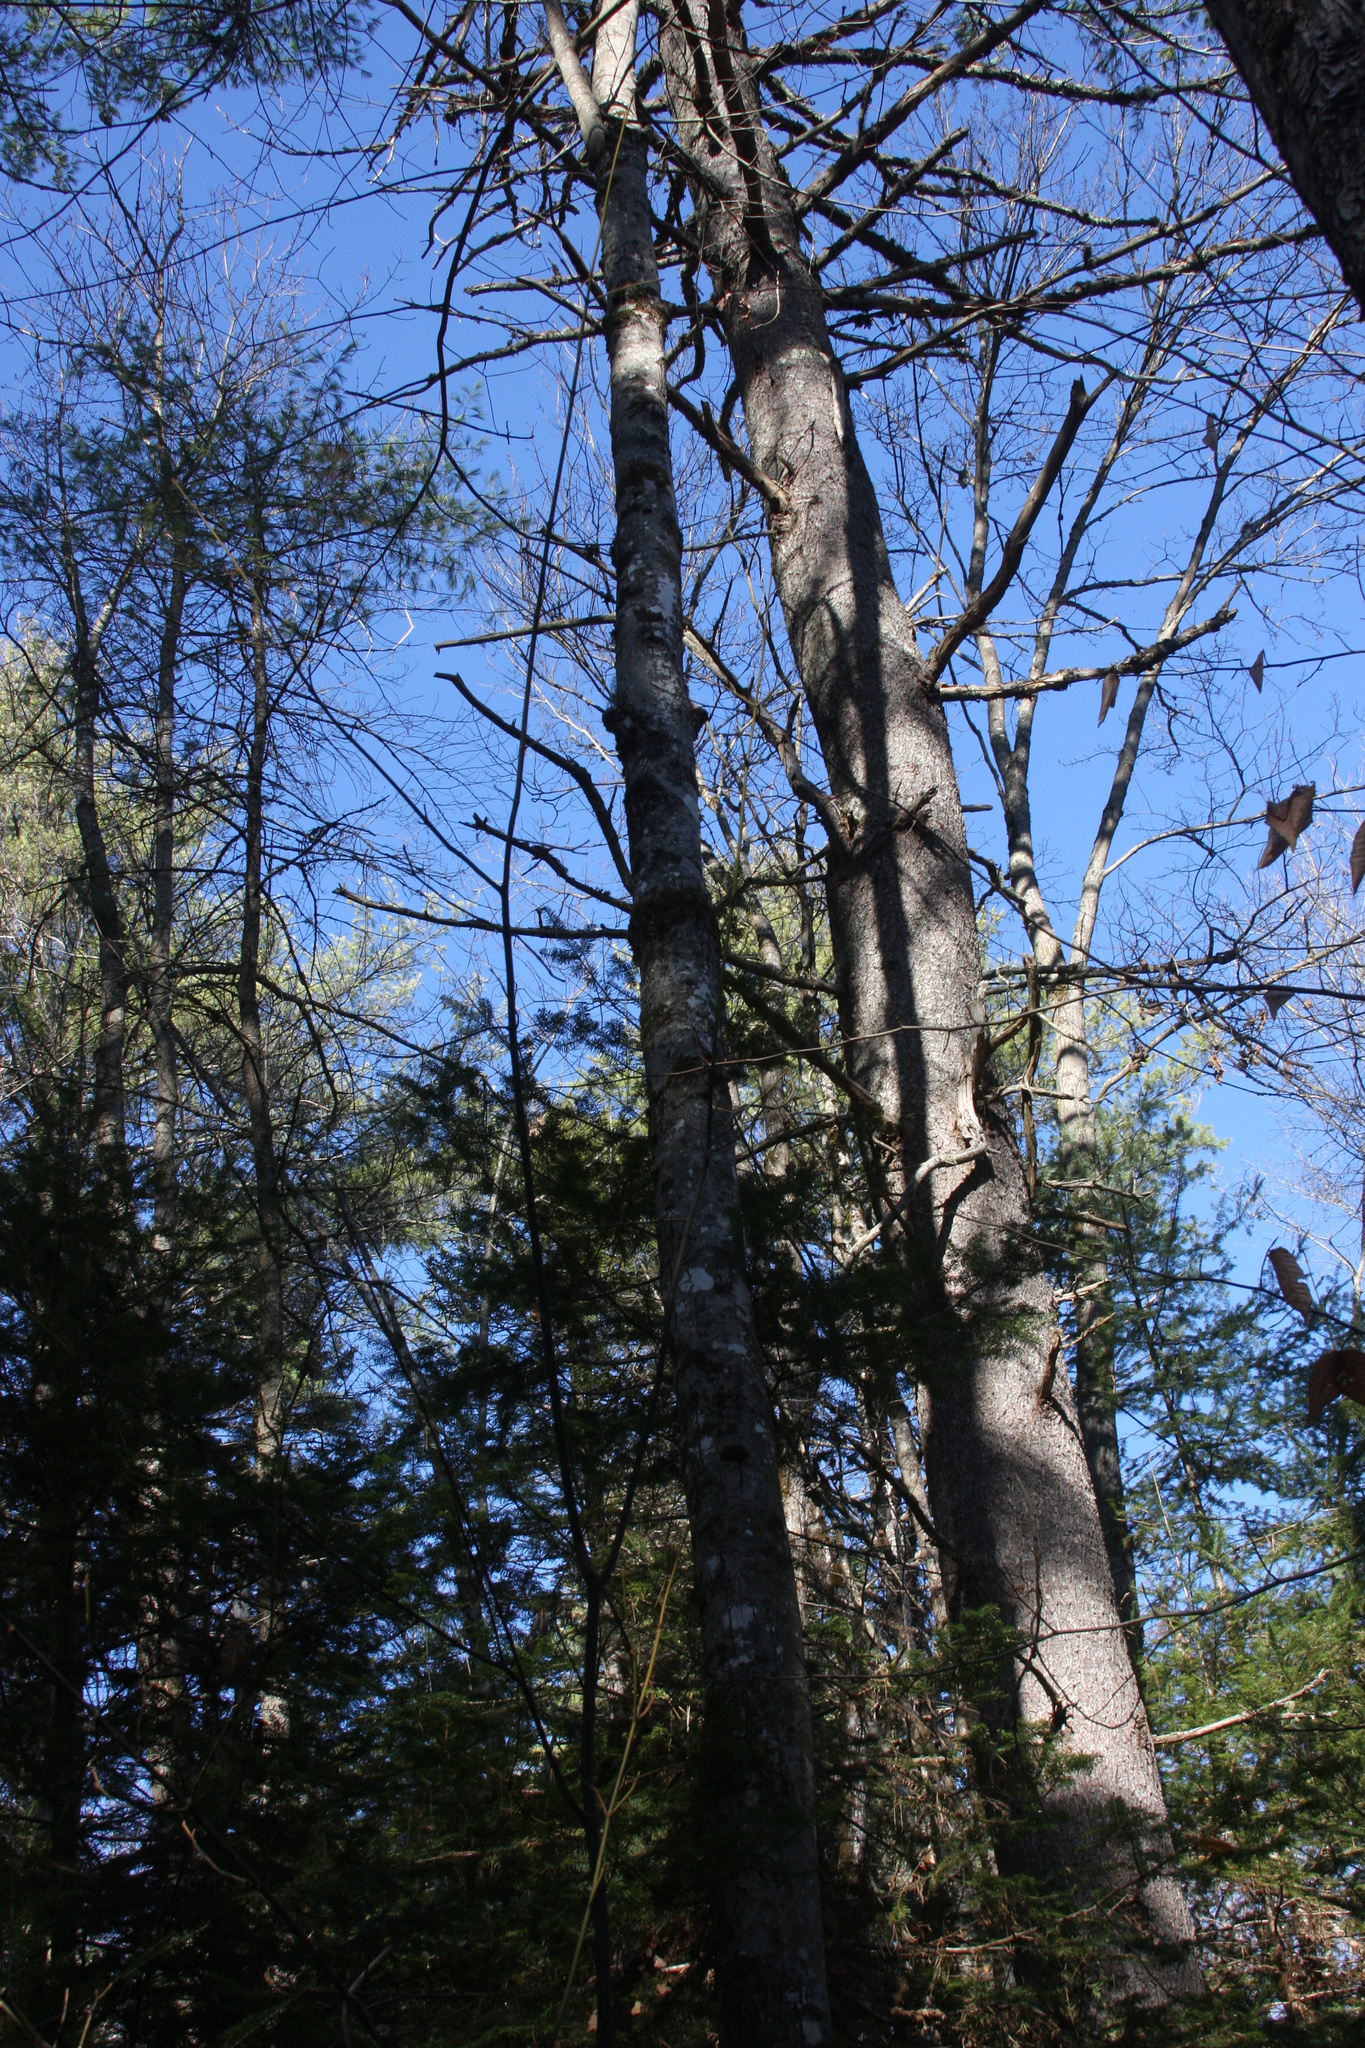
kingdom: Plantae
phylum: Tracheophyta
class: Pinopsida
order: Pinales
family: Pinaceae
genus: Pinus
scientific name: Pinus strobus
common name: Weymouth pine
